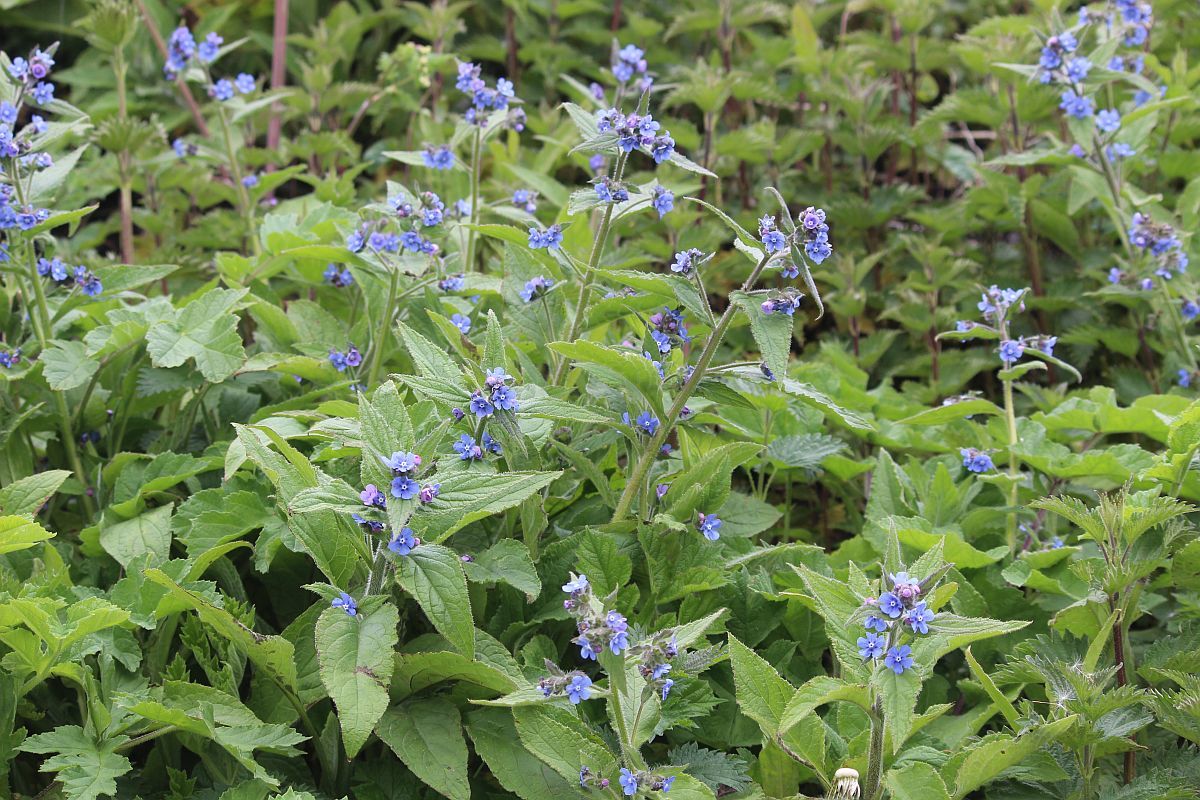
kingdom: Plantae
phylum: Tracheophyta
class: Magnoliopsida
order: Boraginales
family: Boraginaceae
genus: Pentaglottis
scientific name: Pentaglottis sempervirens
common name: Green alkanet
